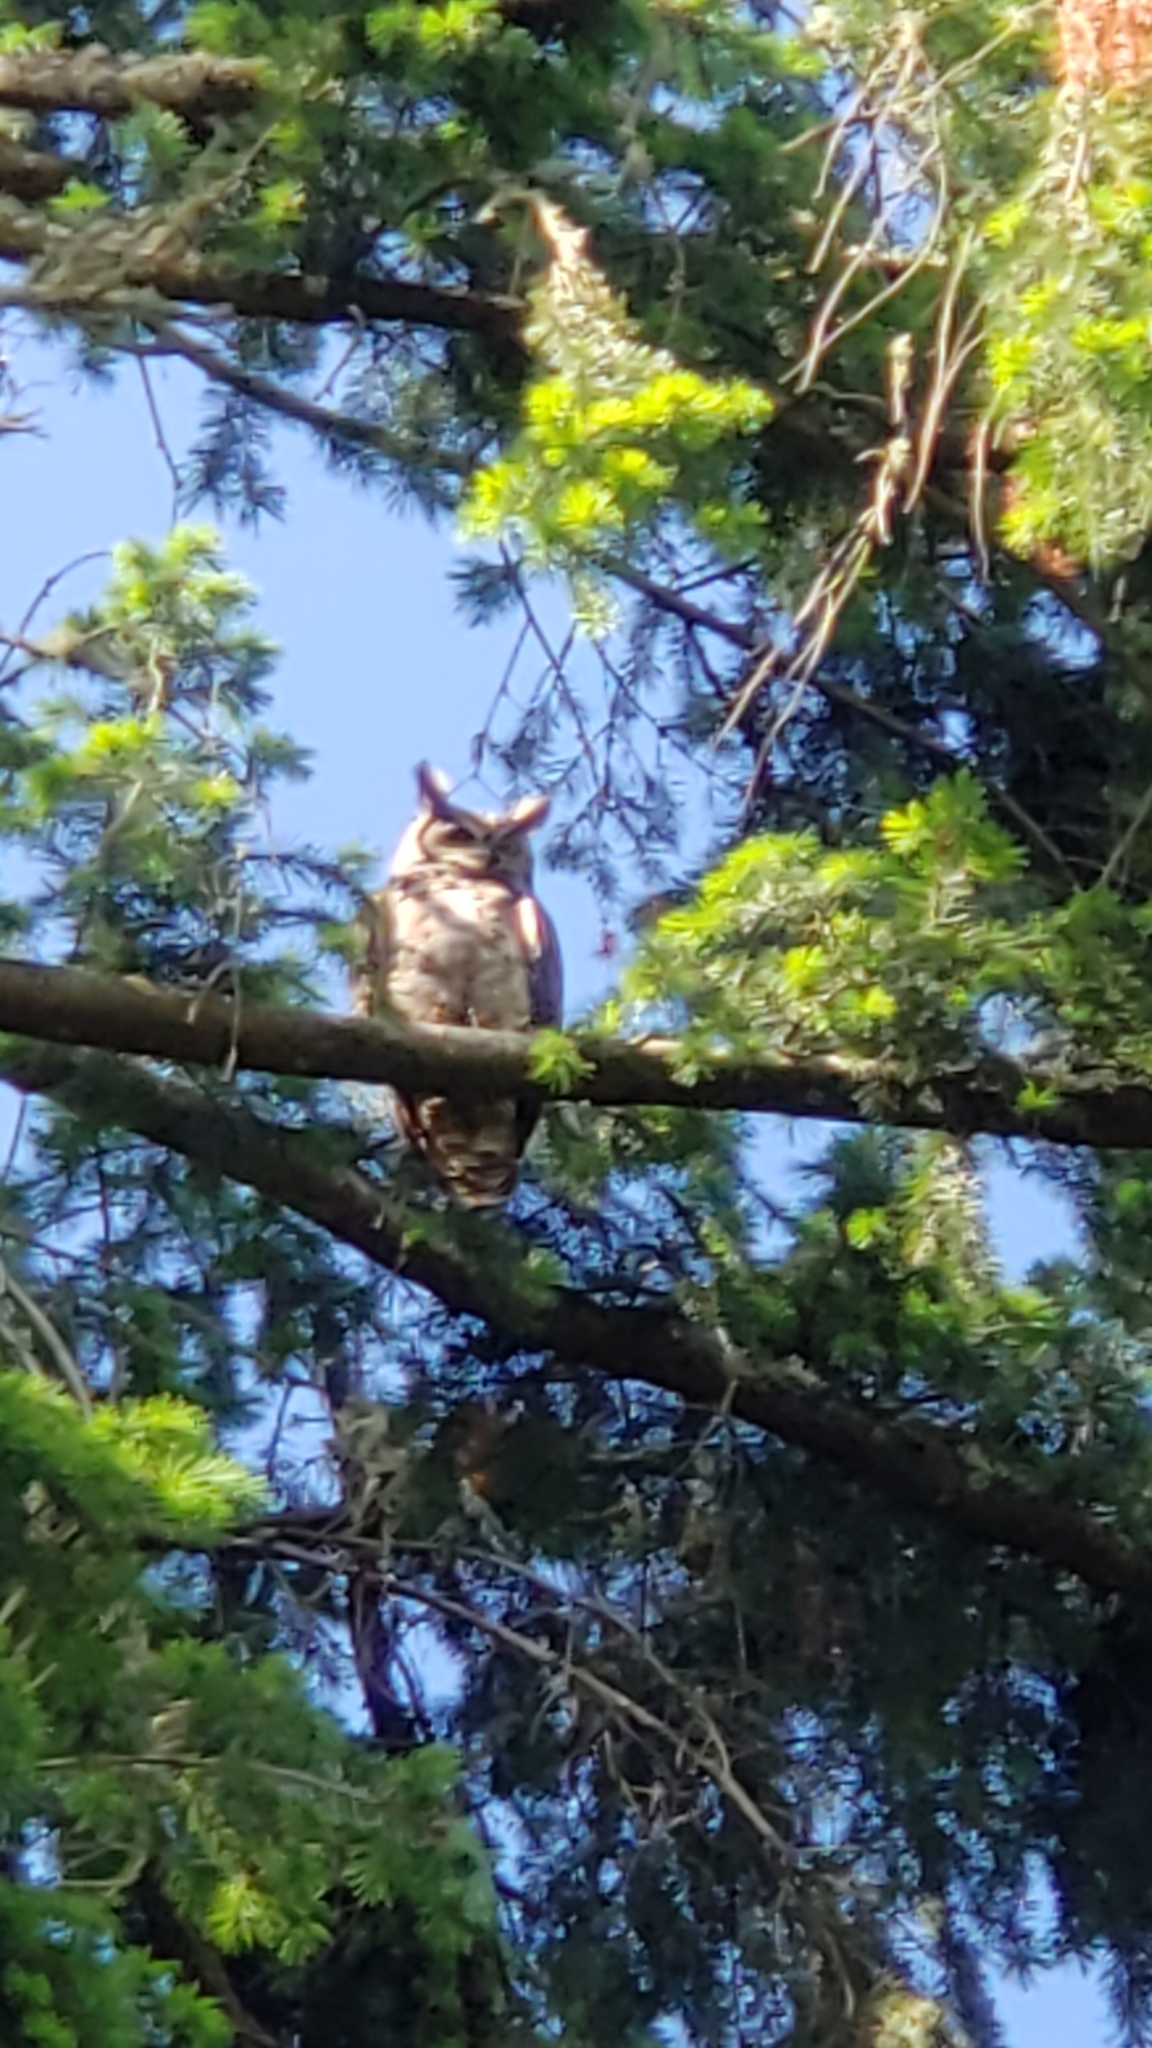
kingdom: Animalia
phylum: Chordata
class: Aves
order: Strigiformes
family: Strigidae
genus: Bubo
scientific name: Bubo virginianus
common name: Great horned owl
